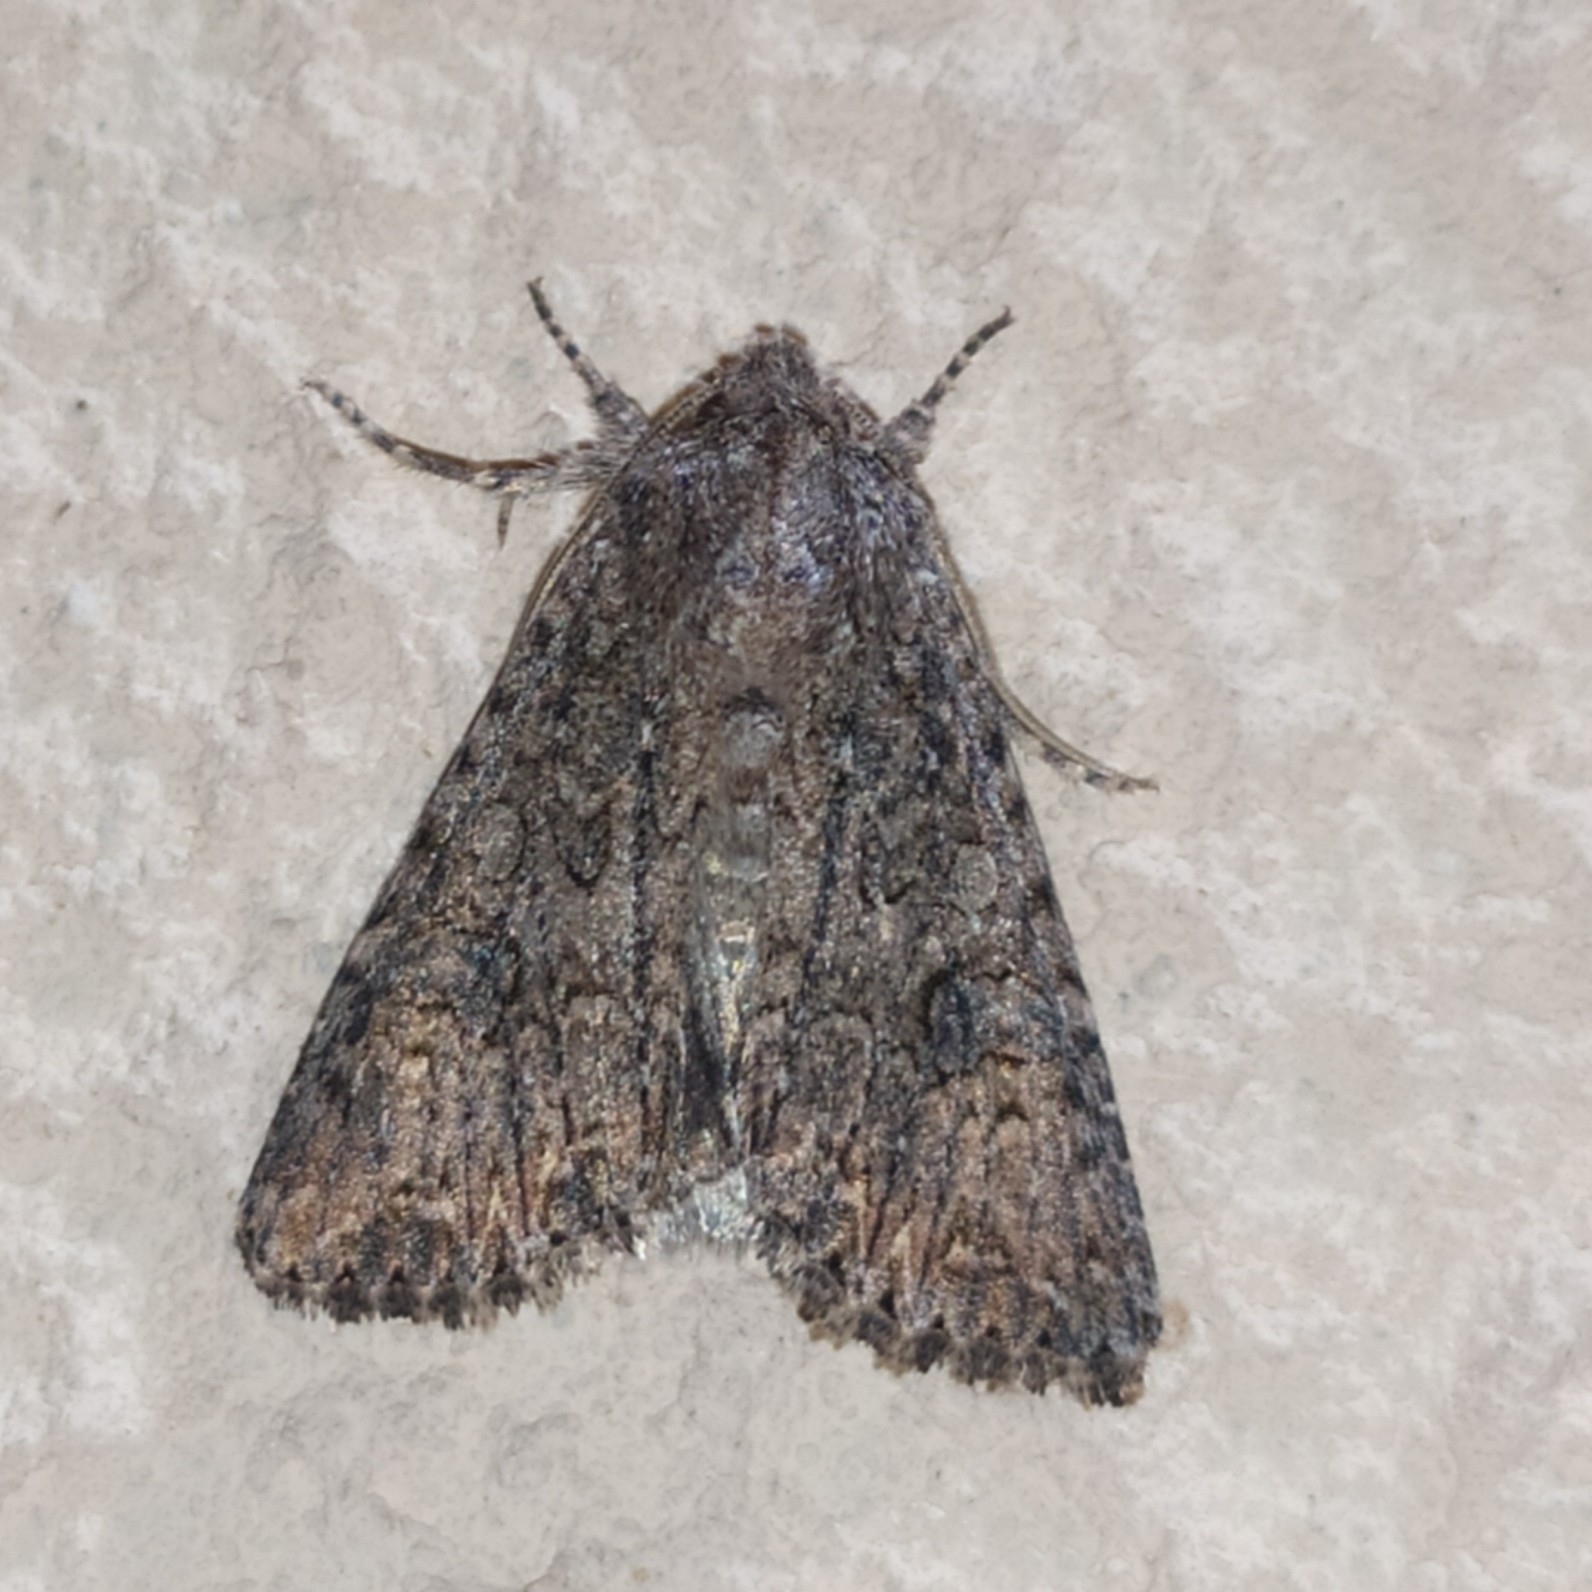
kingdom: Animalia
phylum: Arthropoda
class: Insecta
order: Lepidoptera
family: Noctuidae
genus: Anarta
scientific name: Anarta trifolii
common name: Clover cutworm moth
